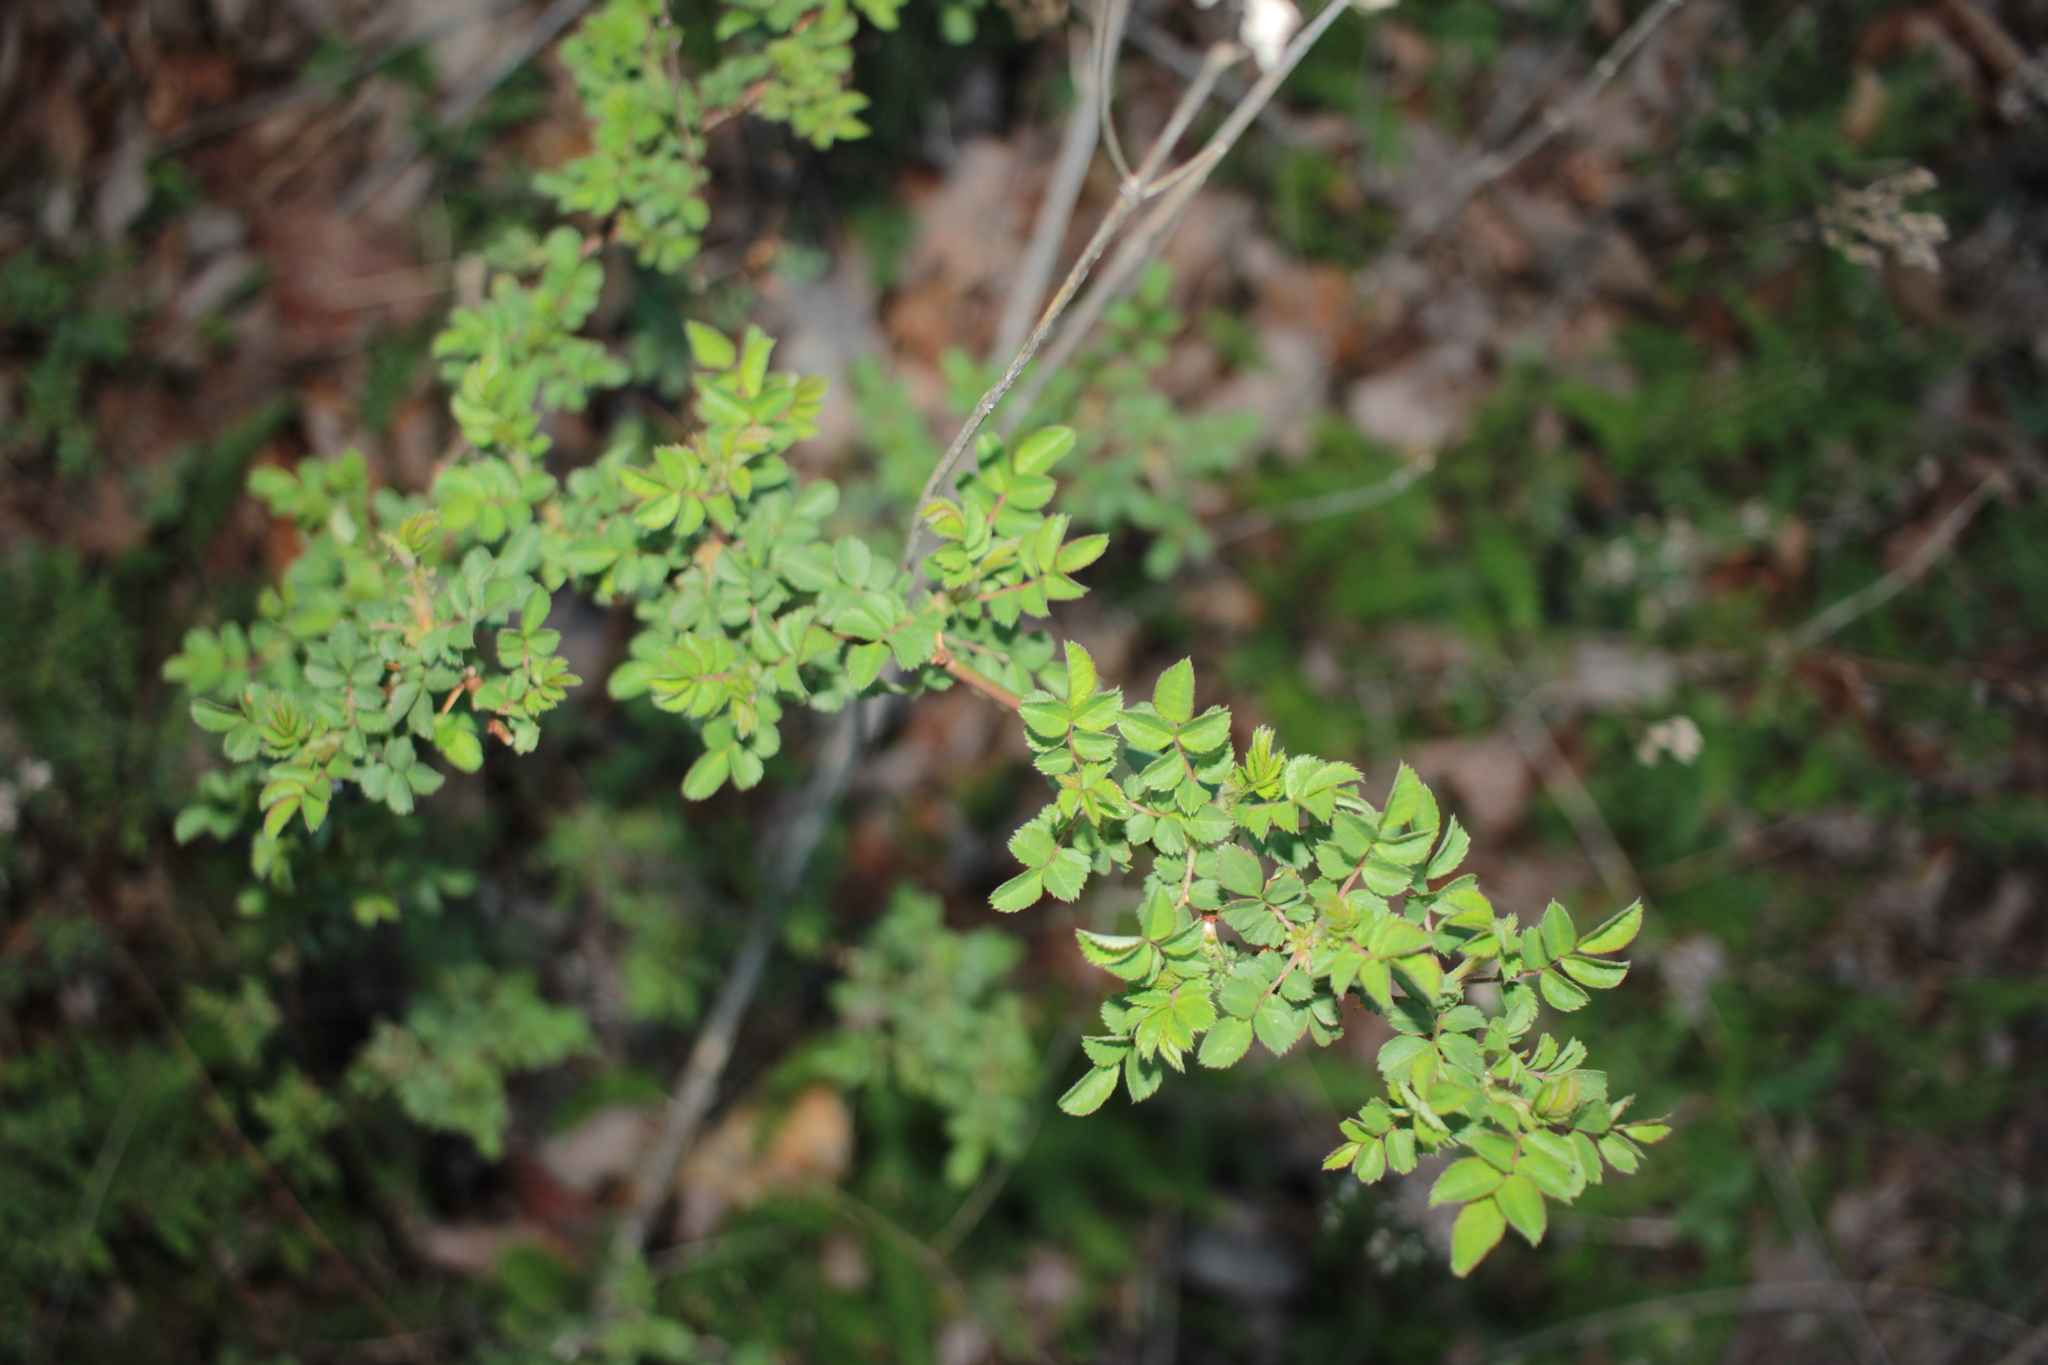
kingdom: Plantae
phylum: Tracheophyta
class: Magnoliopsida
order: Rosales
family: Rosaceae
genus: Rosa
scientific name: Rosa multiflora
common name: Multiflora rose
